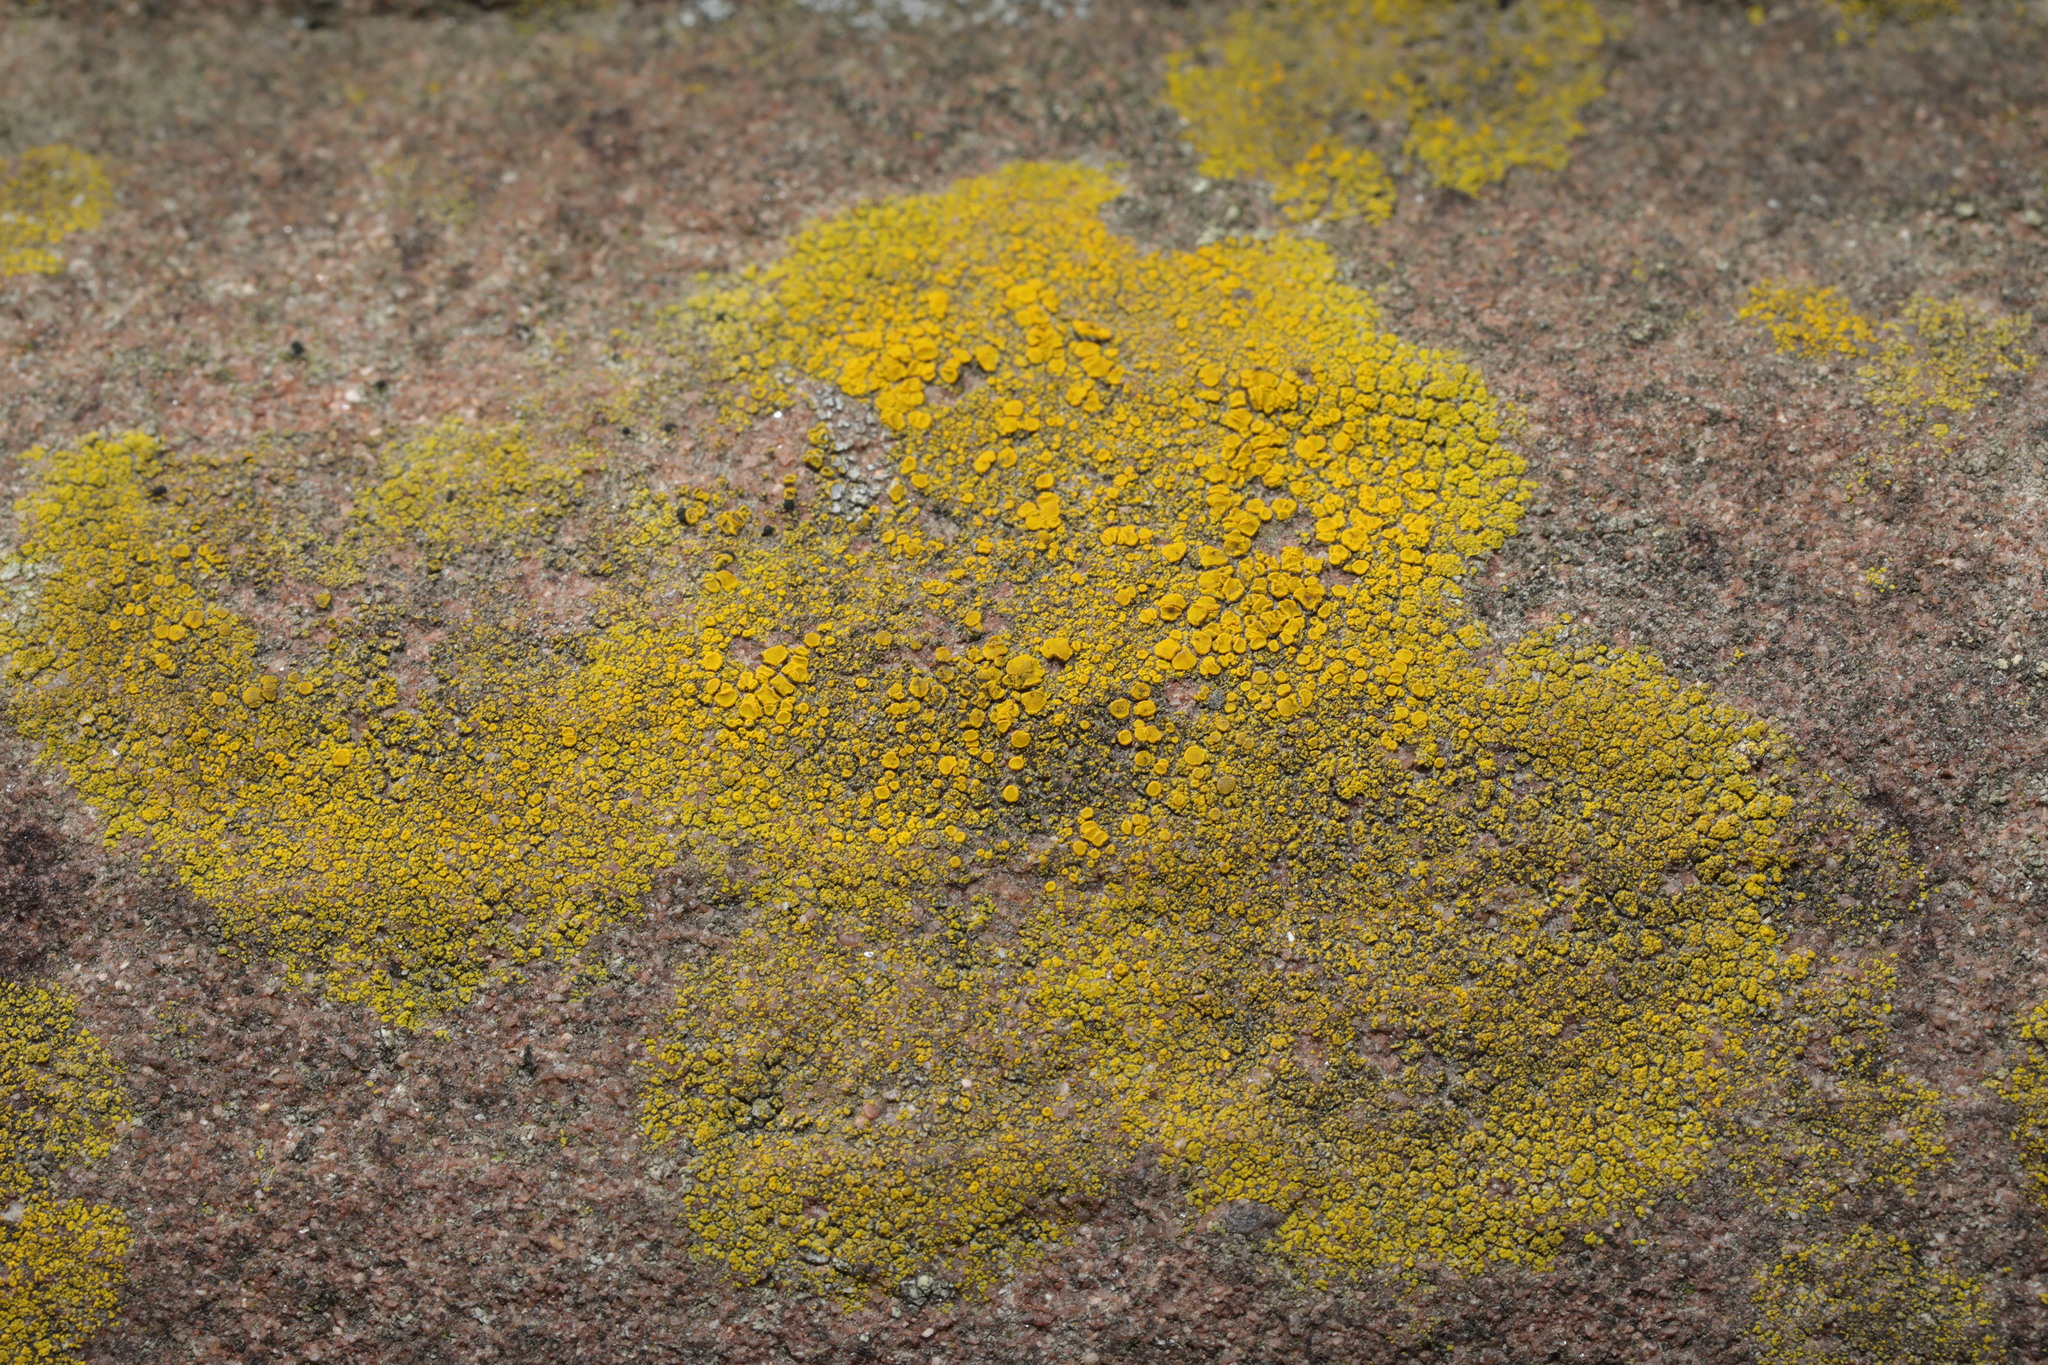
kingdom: Fungi
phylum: Ascomycota
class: Candelariomycetes
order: Candelariales
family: Candelariaceae
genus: Candelariella
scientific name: Candelariella vitellina
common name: Common goldspeck
